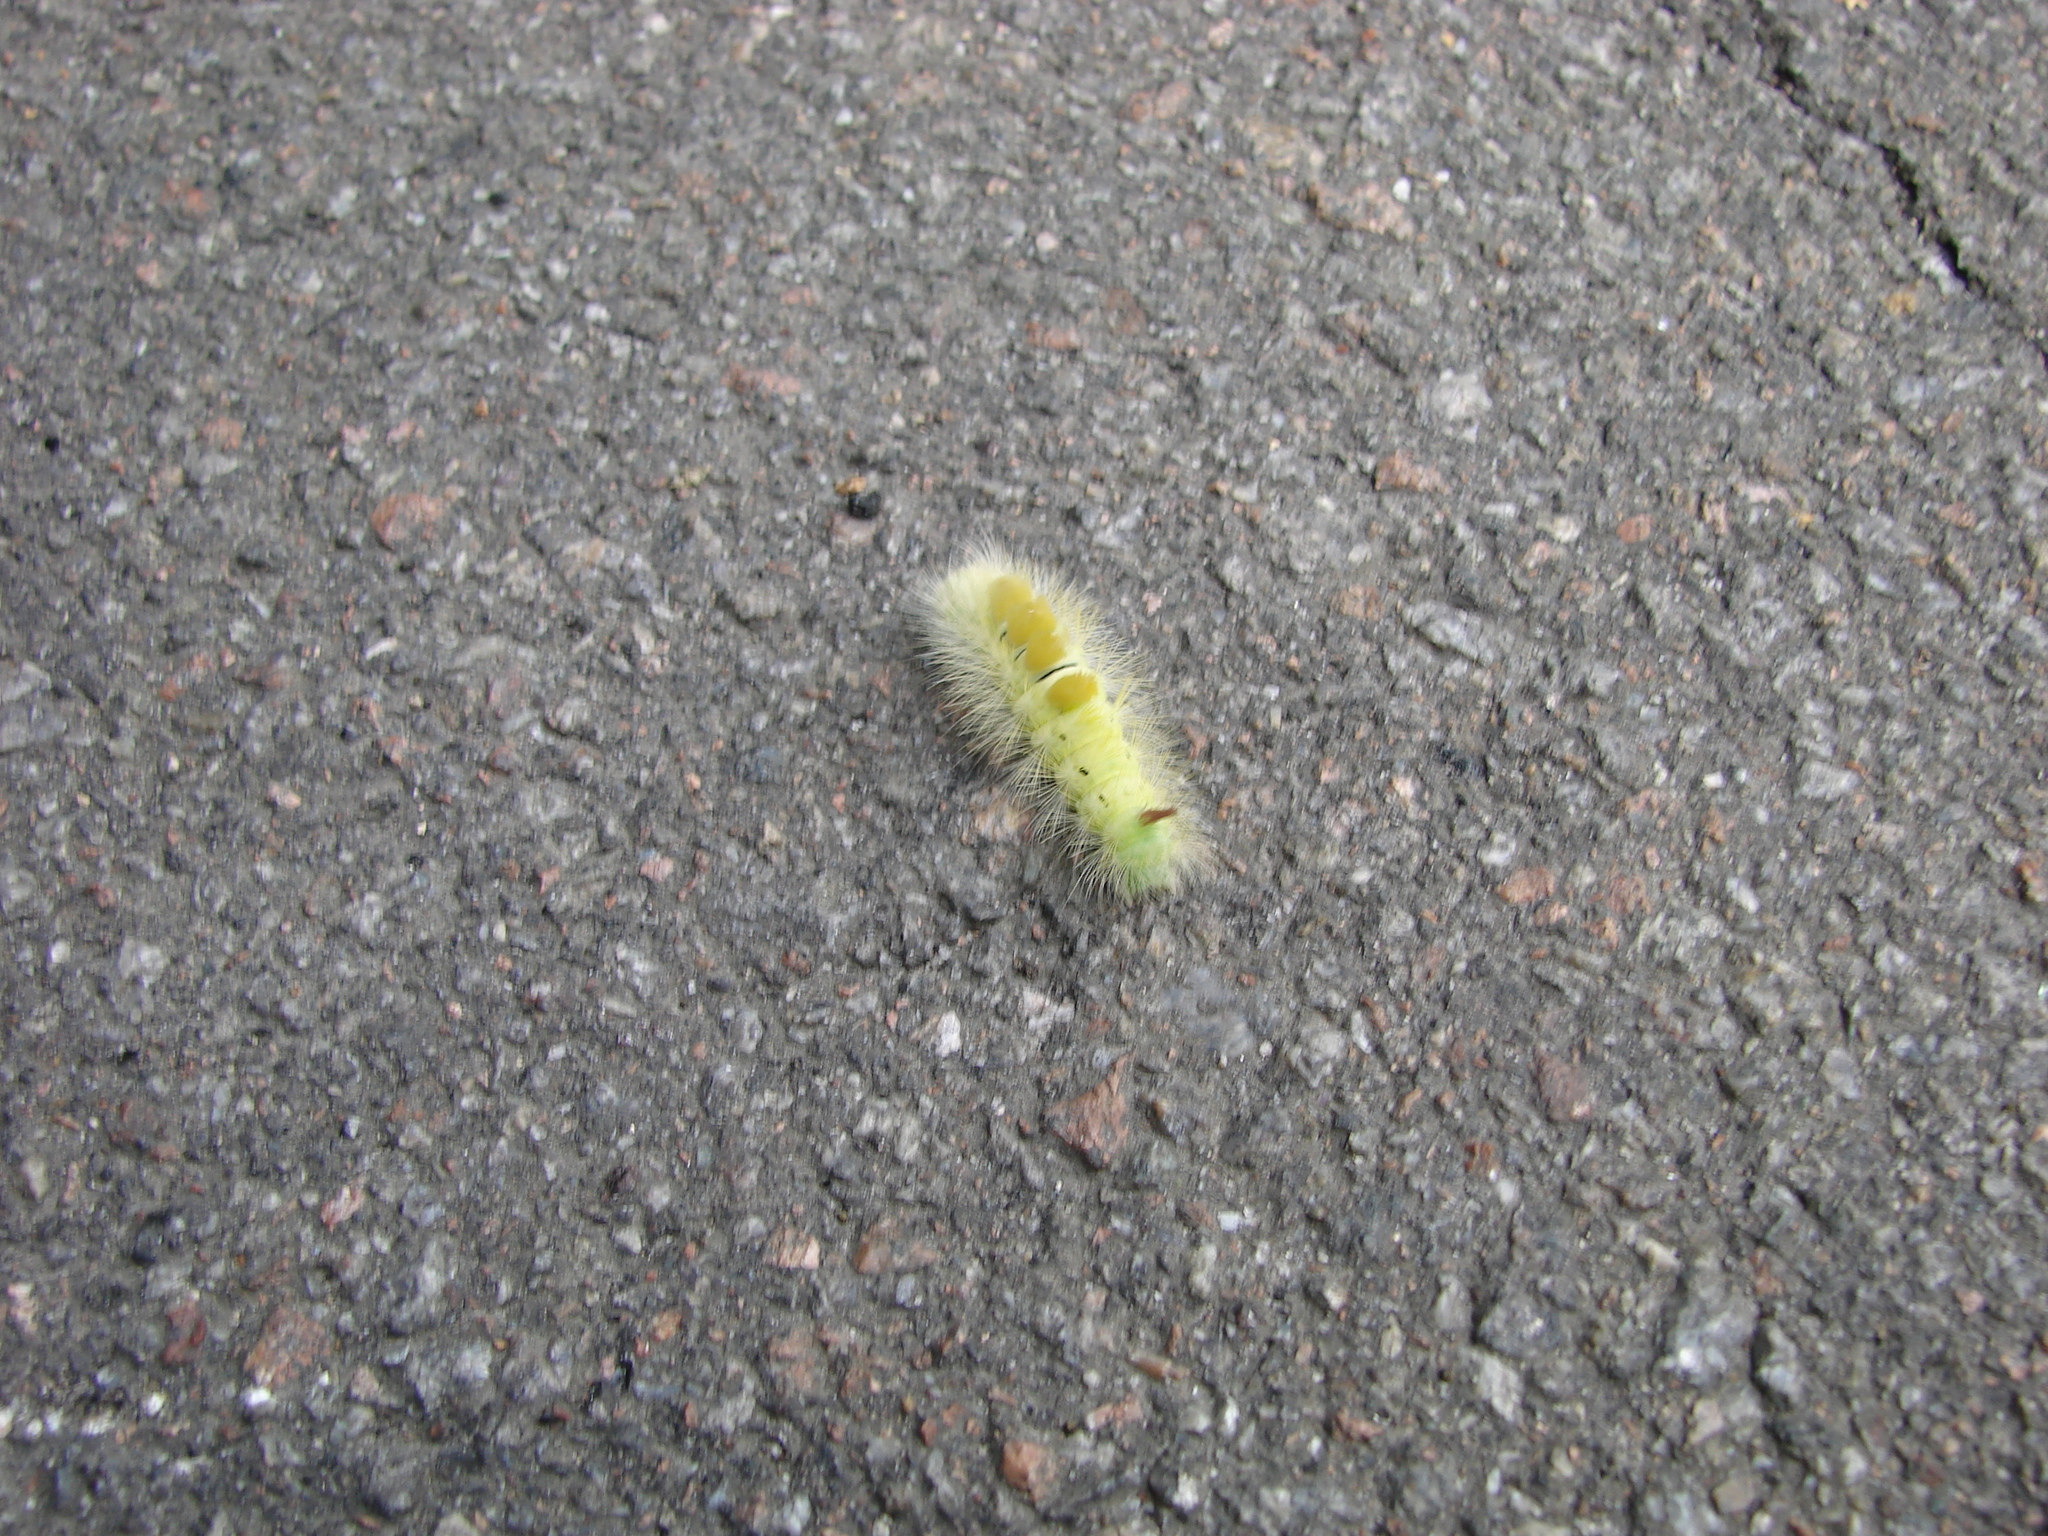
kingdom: Animalia
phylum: Arthropoda
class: Insecta
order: Lepidoptera
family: Erebidae
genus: Calliteara
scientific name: Calliteara pudibunda
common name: Pale tussock
